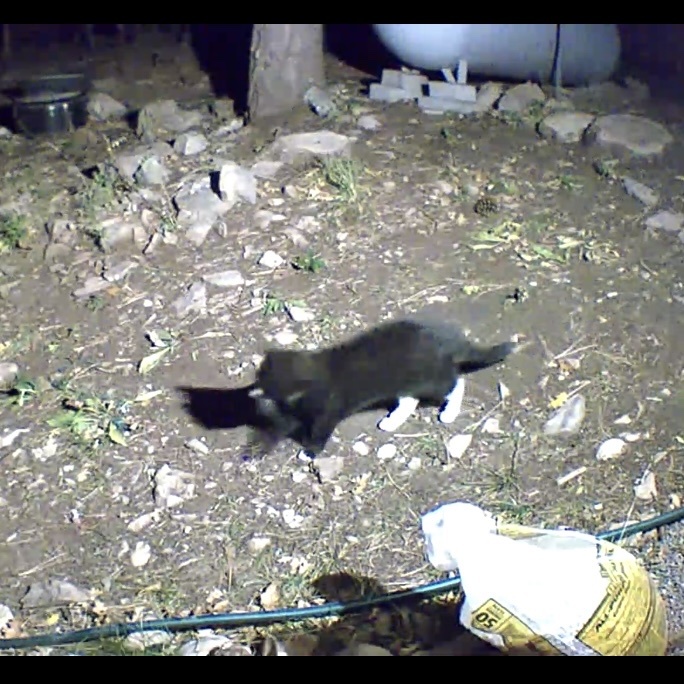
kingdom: Animalia
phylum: Chordata
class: Mammalia
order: Carnivora
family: Felidae
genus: Felis
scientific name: Felis catus
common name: Domestic cat
